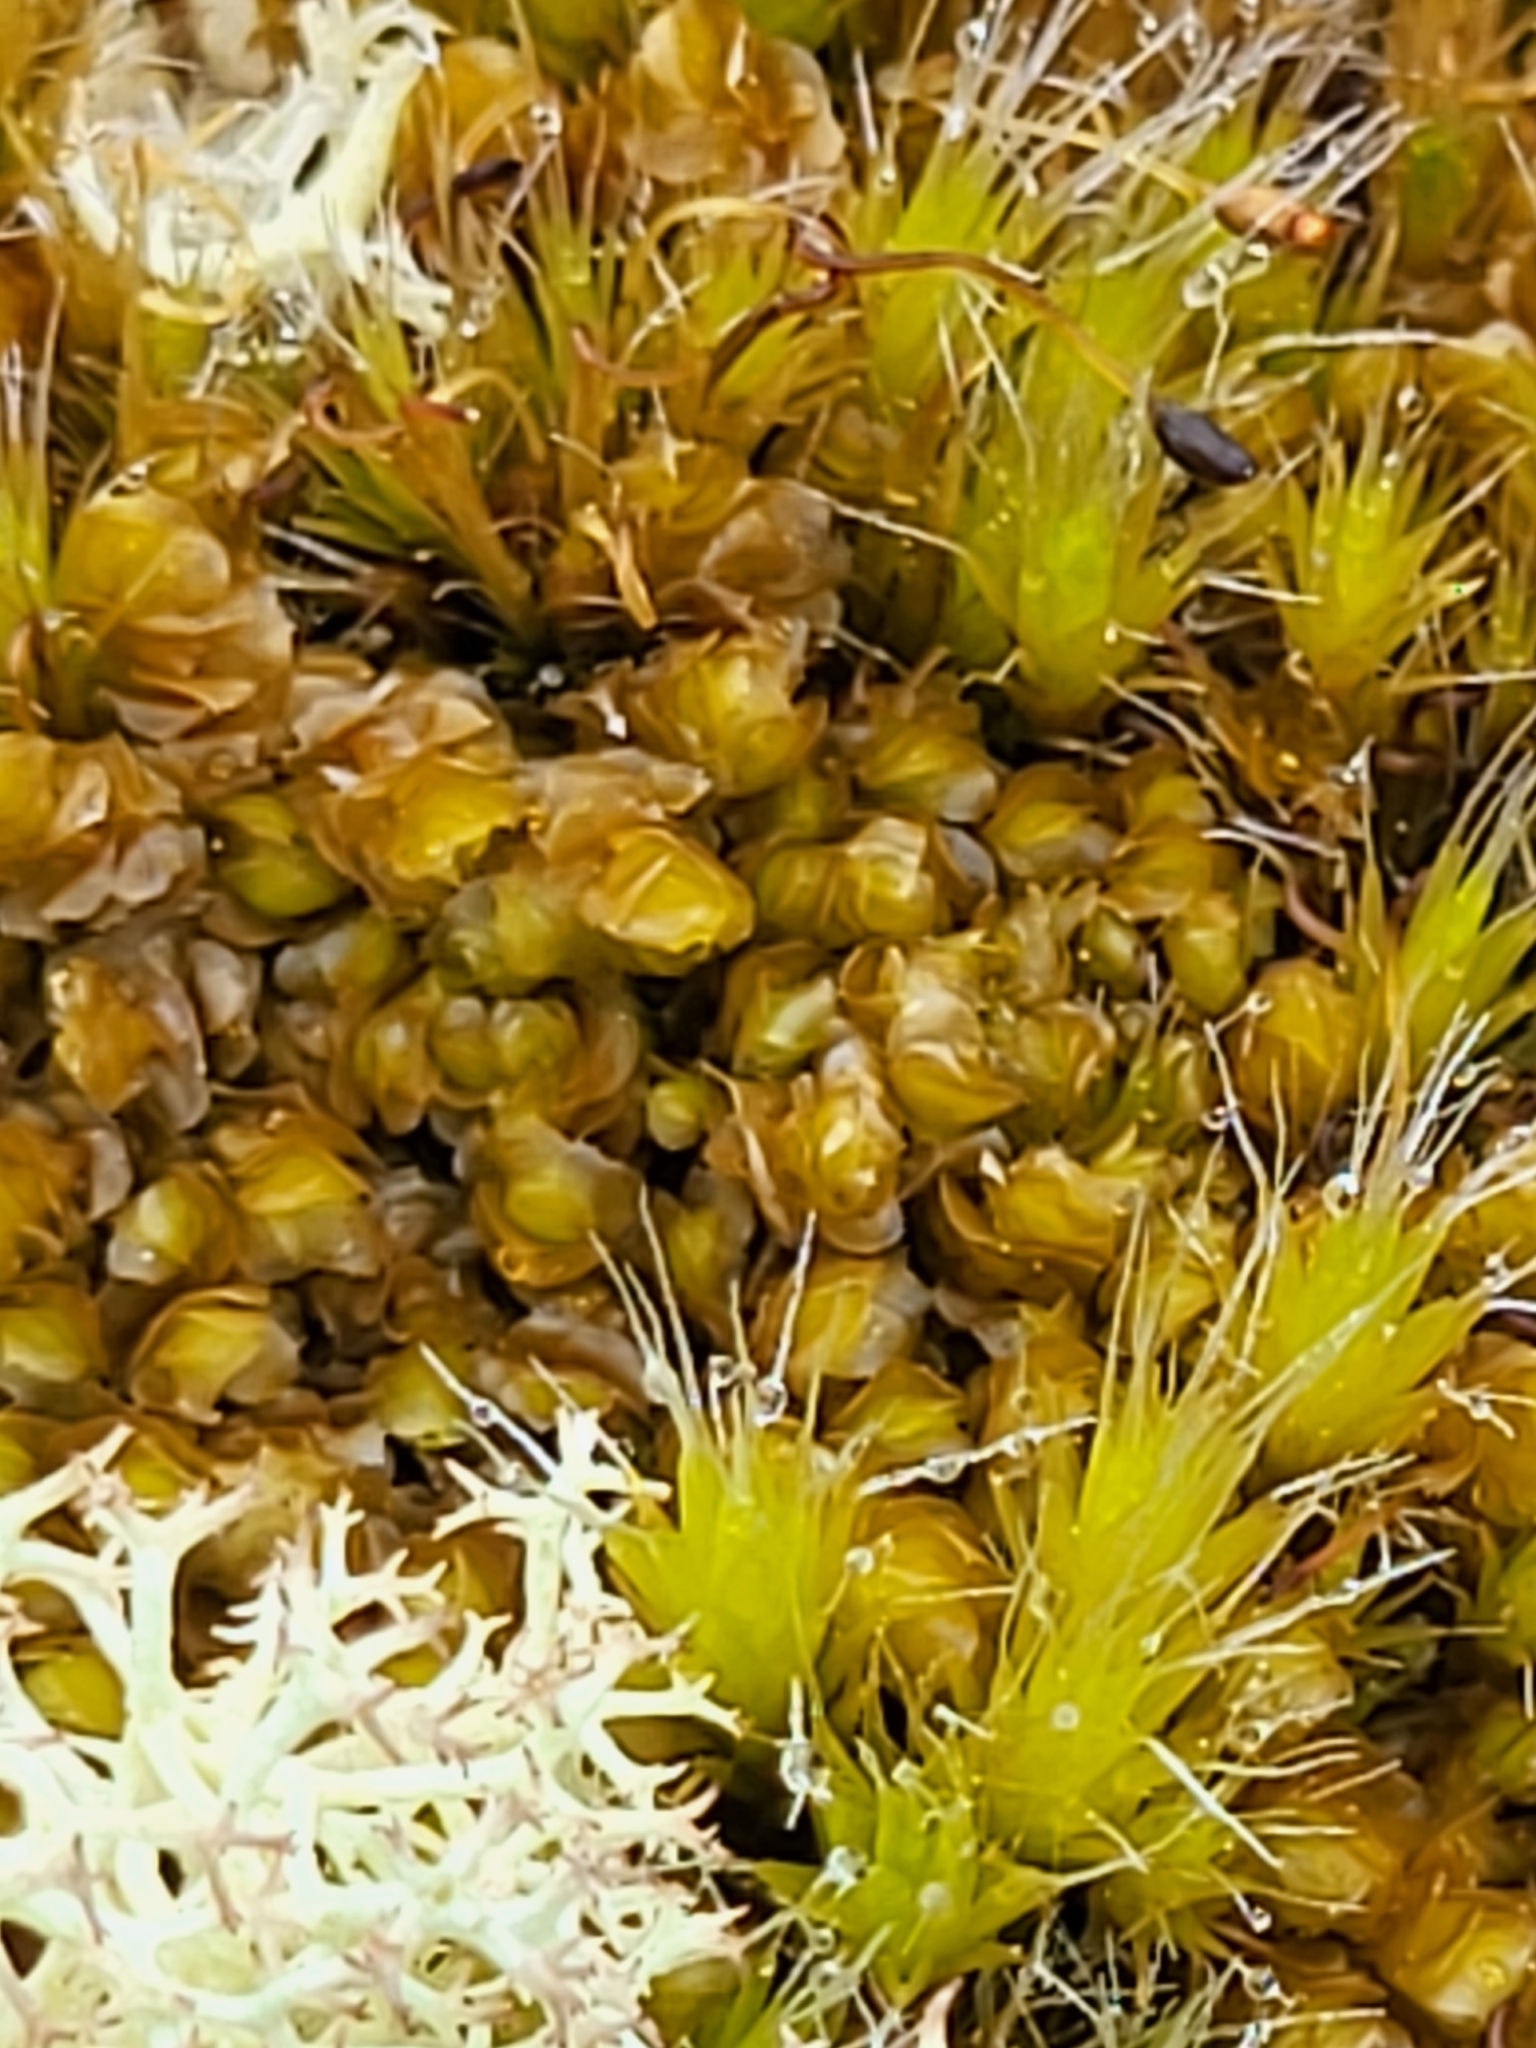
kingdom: Plantae
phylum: Bryophyta
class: Bryopsida
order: Dicranales
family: Leucobryaceae
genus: Campylopus
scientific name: Campylopus introflexus
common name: Heath star moss
